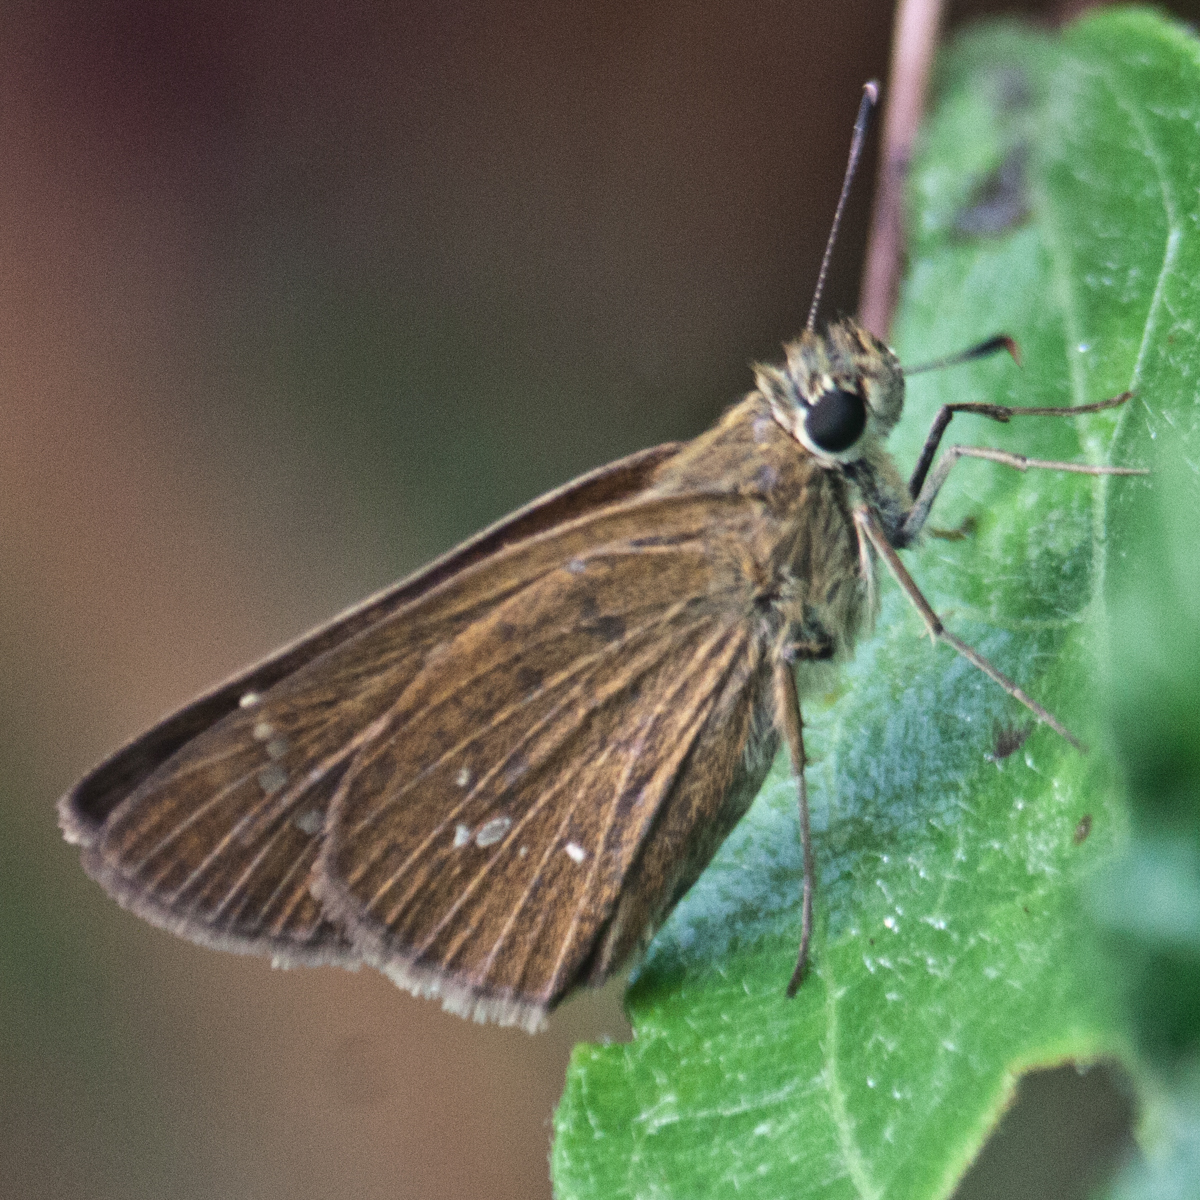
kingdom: Animalia
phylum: Arthropoda
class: Insecta
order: Lepidoptera
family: Hesperiidae
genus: Polytremis
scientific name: Polytremis lubricans
